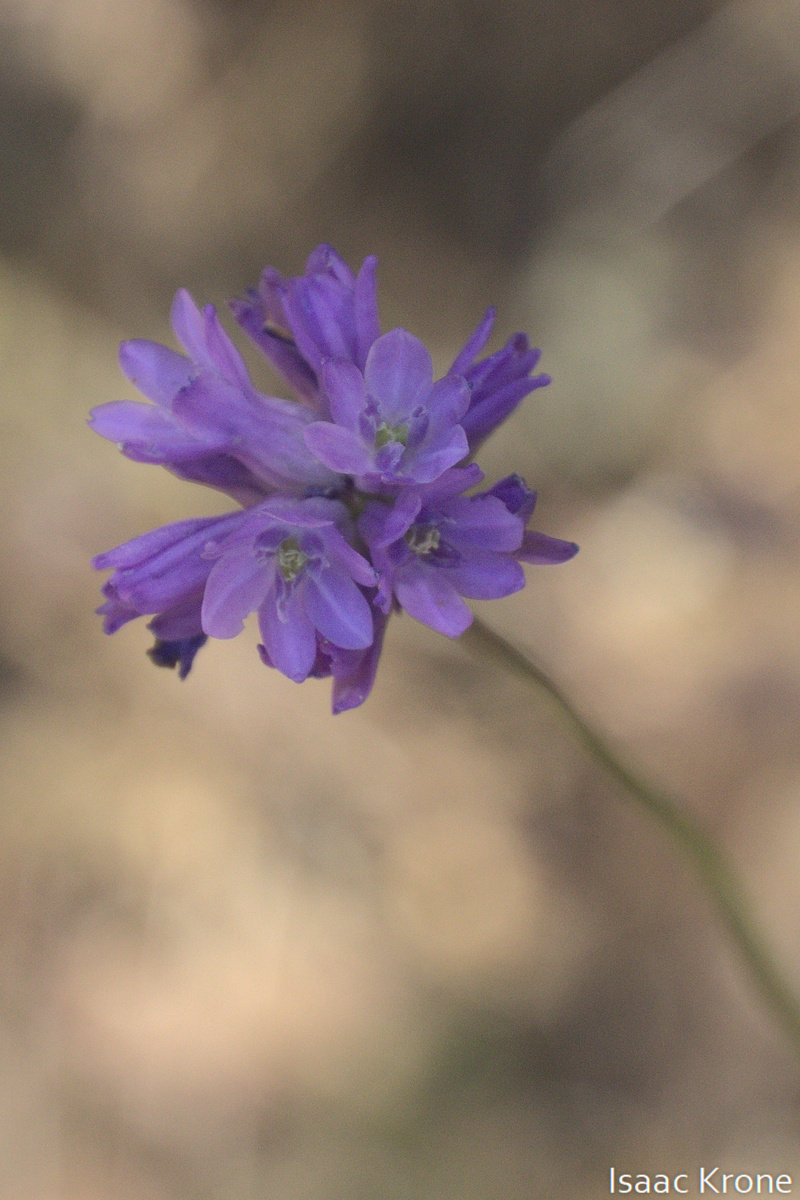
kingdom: Plantae
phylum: Tracheophyta
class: Liliopsida
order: Asparagales
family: Asparagaceae
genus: Dichelostemma
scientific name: Dichelostemma congestum
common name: Fork-tooth ookow
